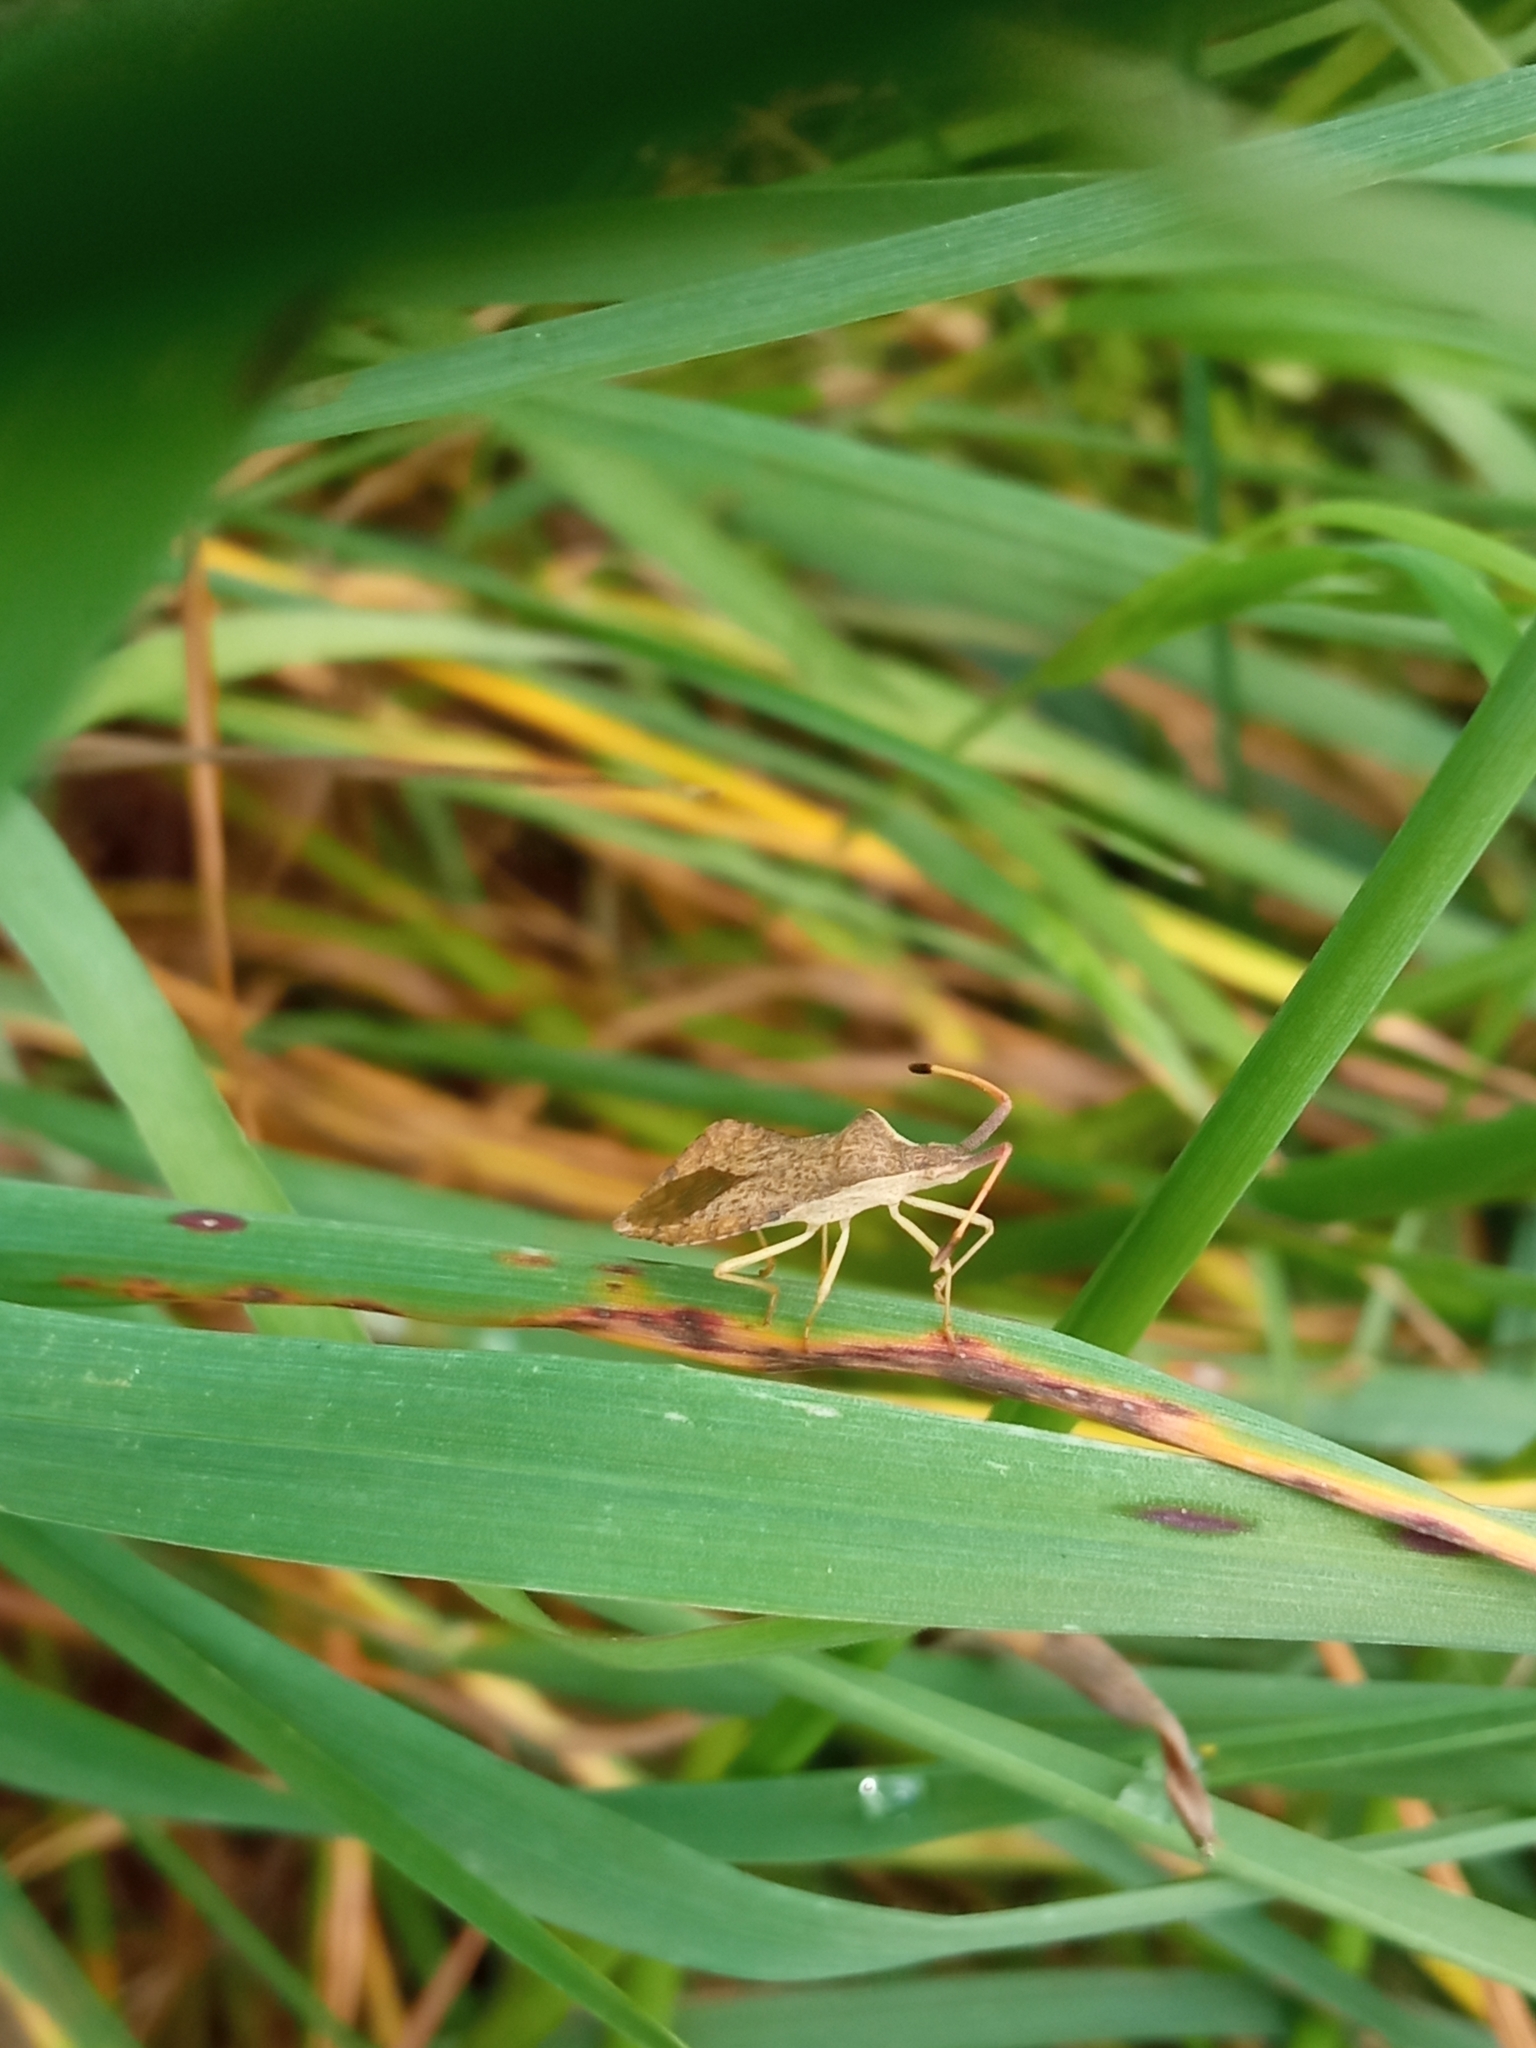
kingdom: Animalia
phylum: Arthropoda
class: Insecta
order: Hemiptera
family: Coreidae
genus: Syromastus
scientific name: Syromastus rhombeus
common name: Rhombic leatherbug
